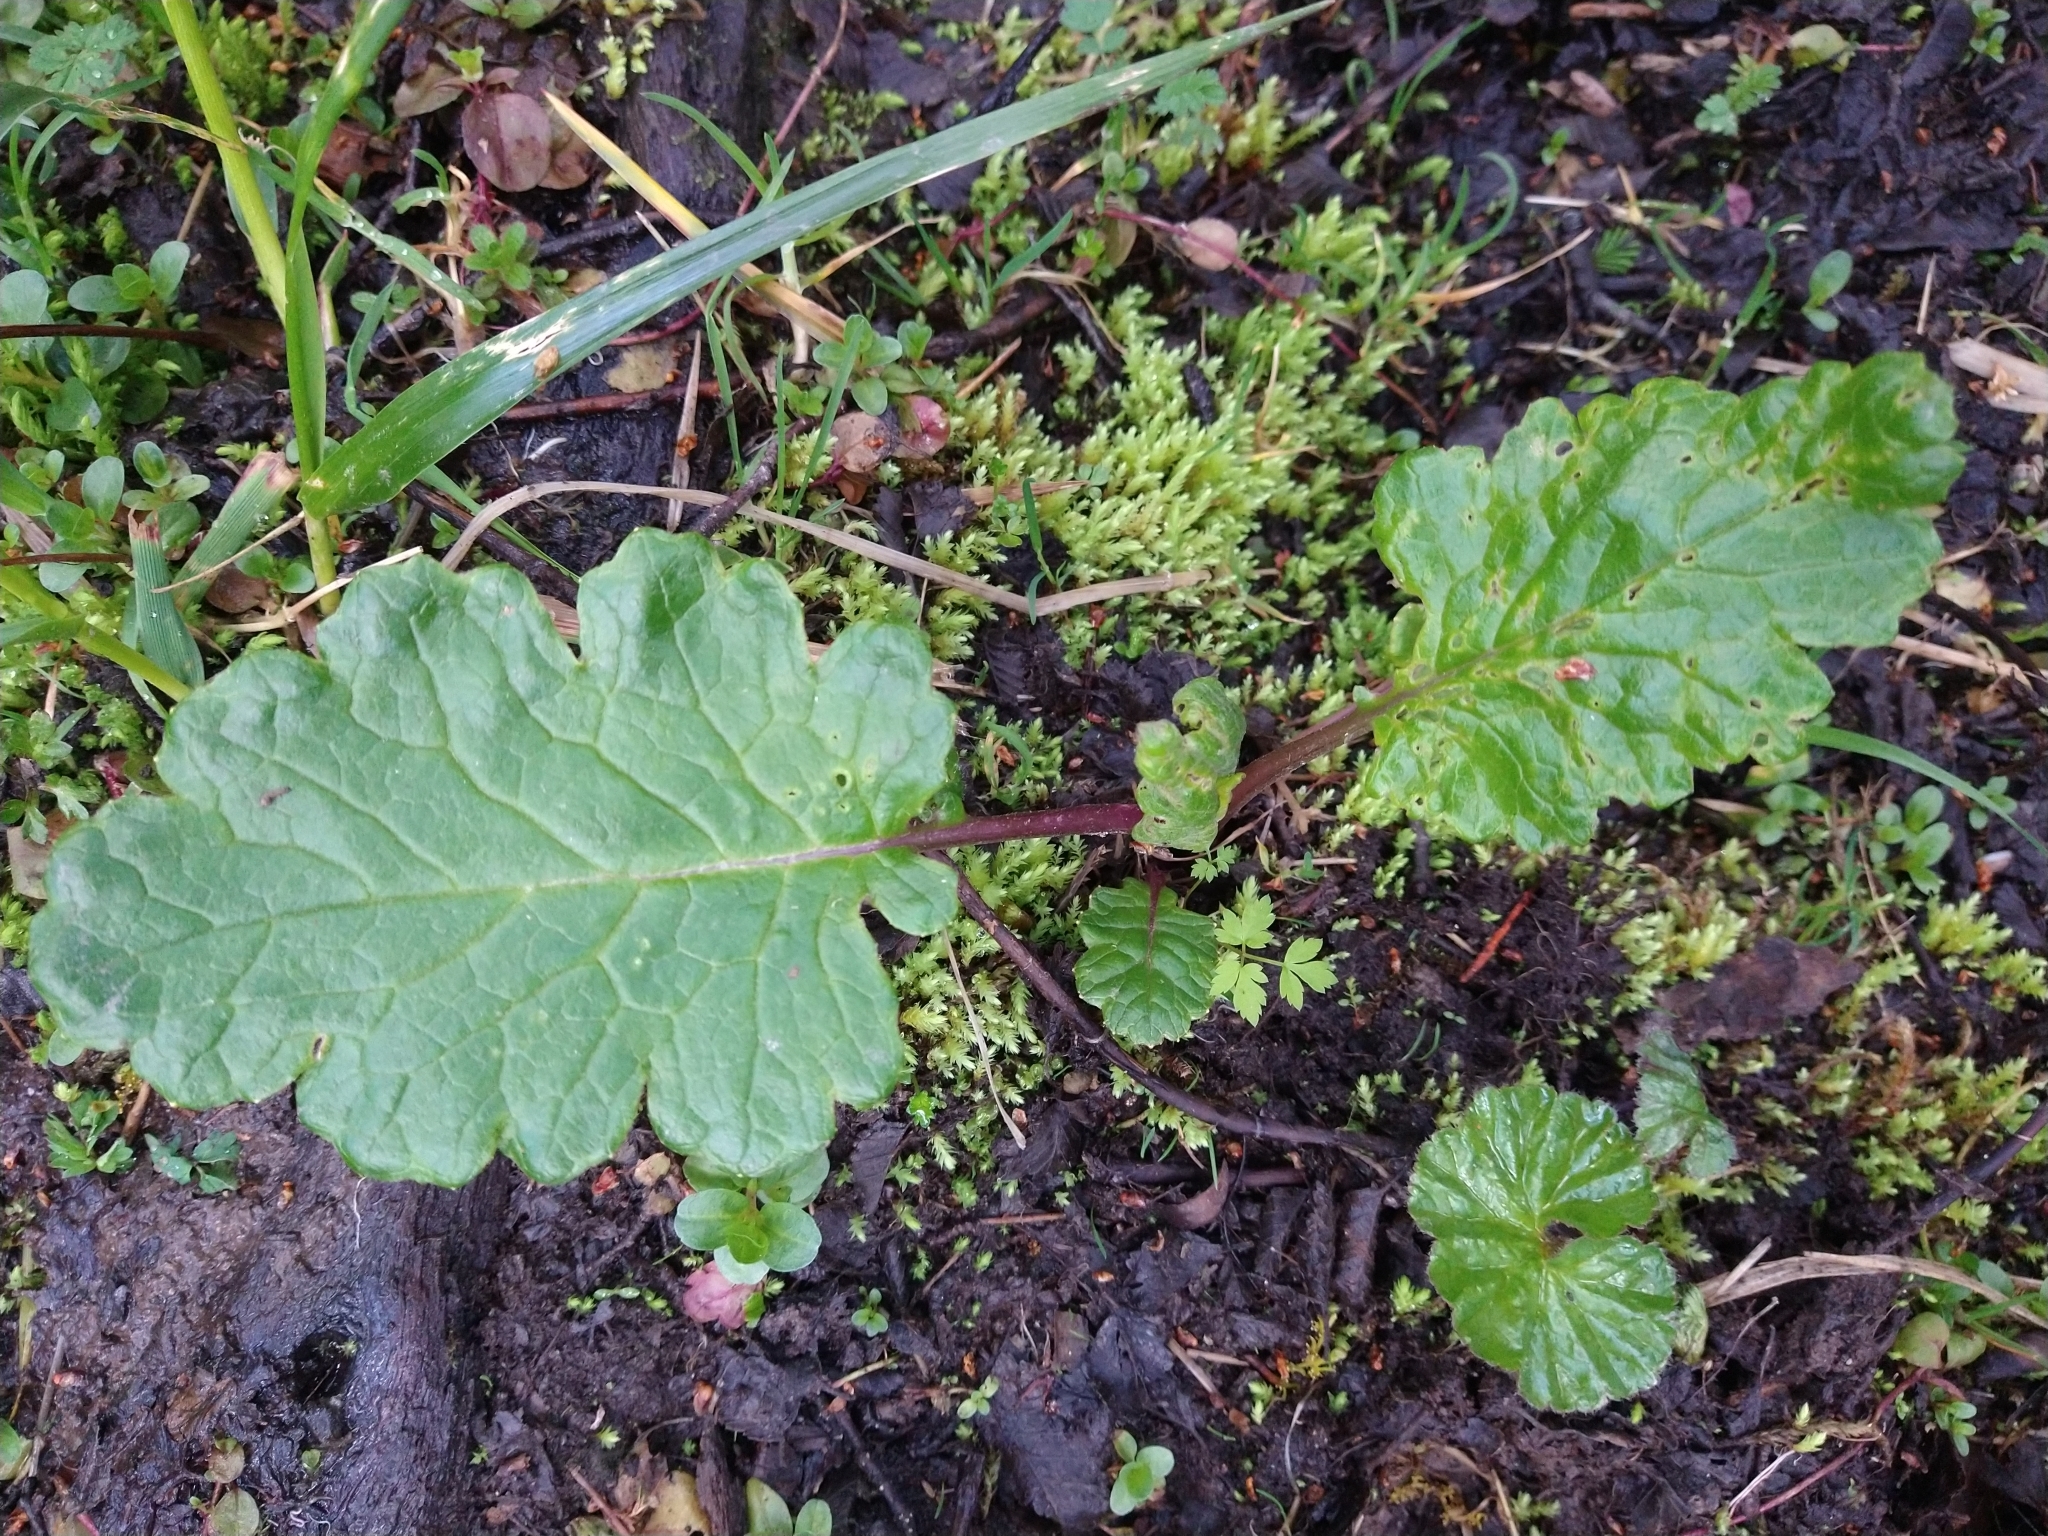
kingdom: Plantae
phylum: Tracheophyta
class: Magnoliopsida
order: Asterales
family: Asteraceae
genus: Iocenes
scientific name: Iocenes virens
